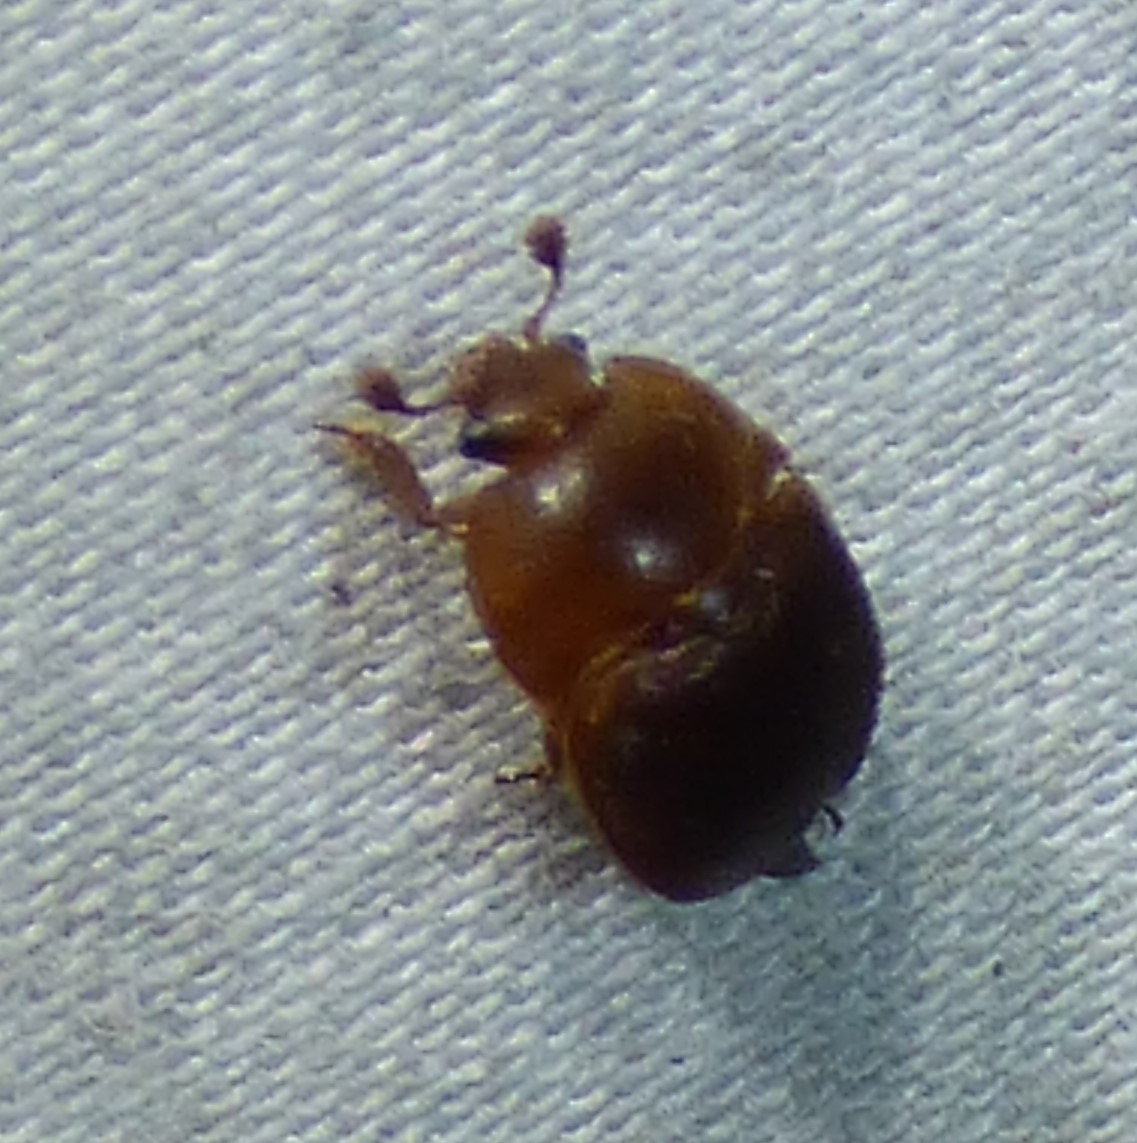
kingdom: Animalia
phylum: Arthropoda
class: Insecta
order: Coleoptera
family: Nitidulidae
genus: Aethina
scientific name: Aethina tumida
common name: Small hive beetle
